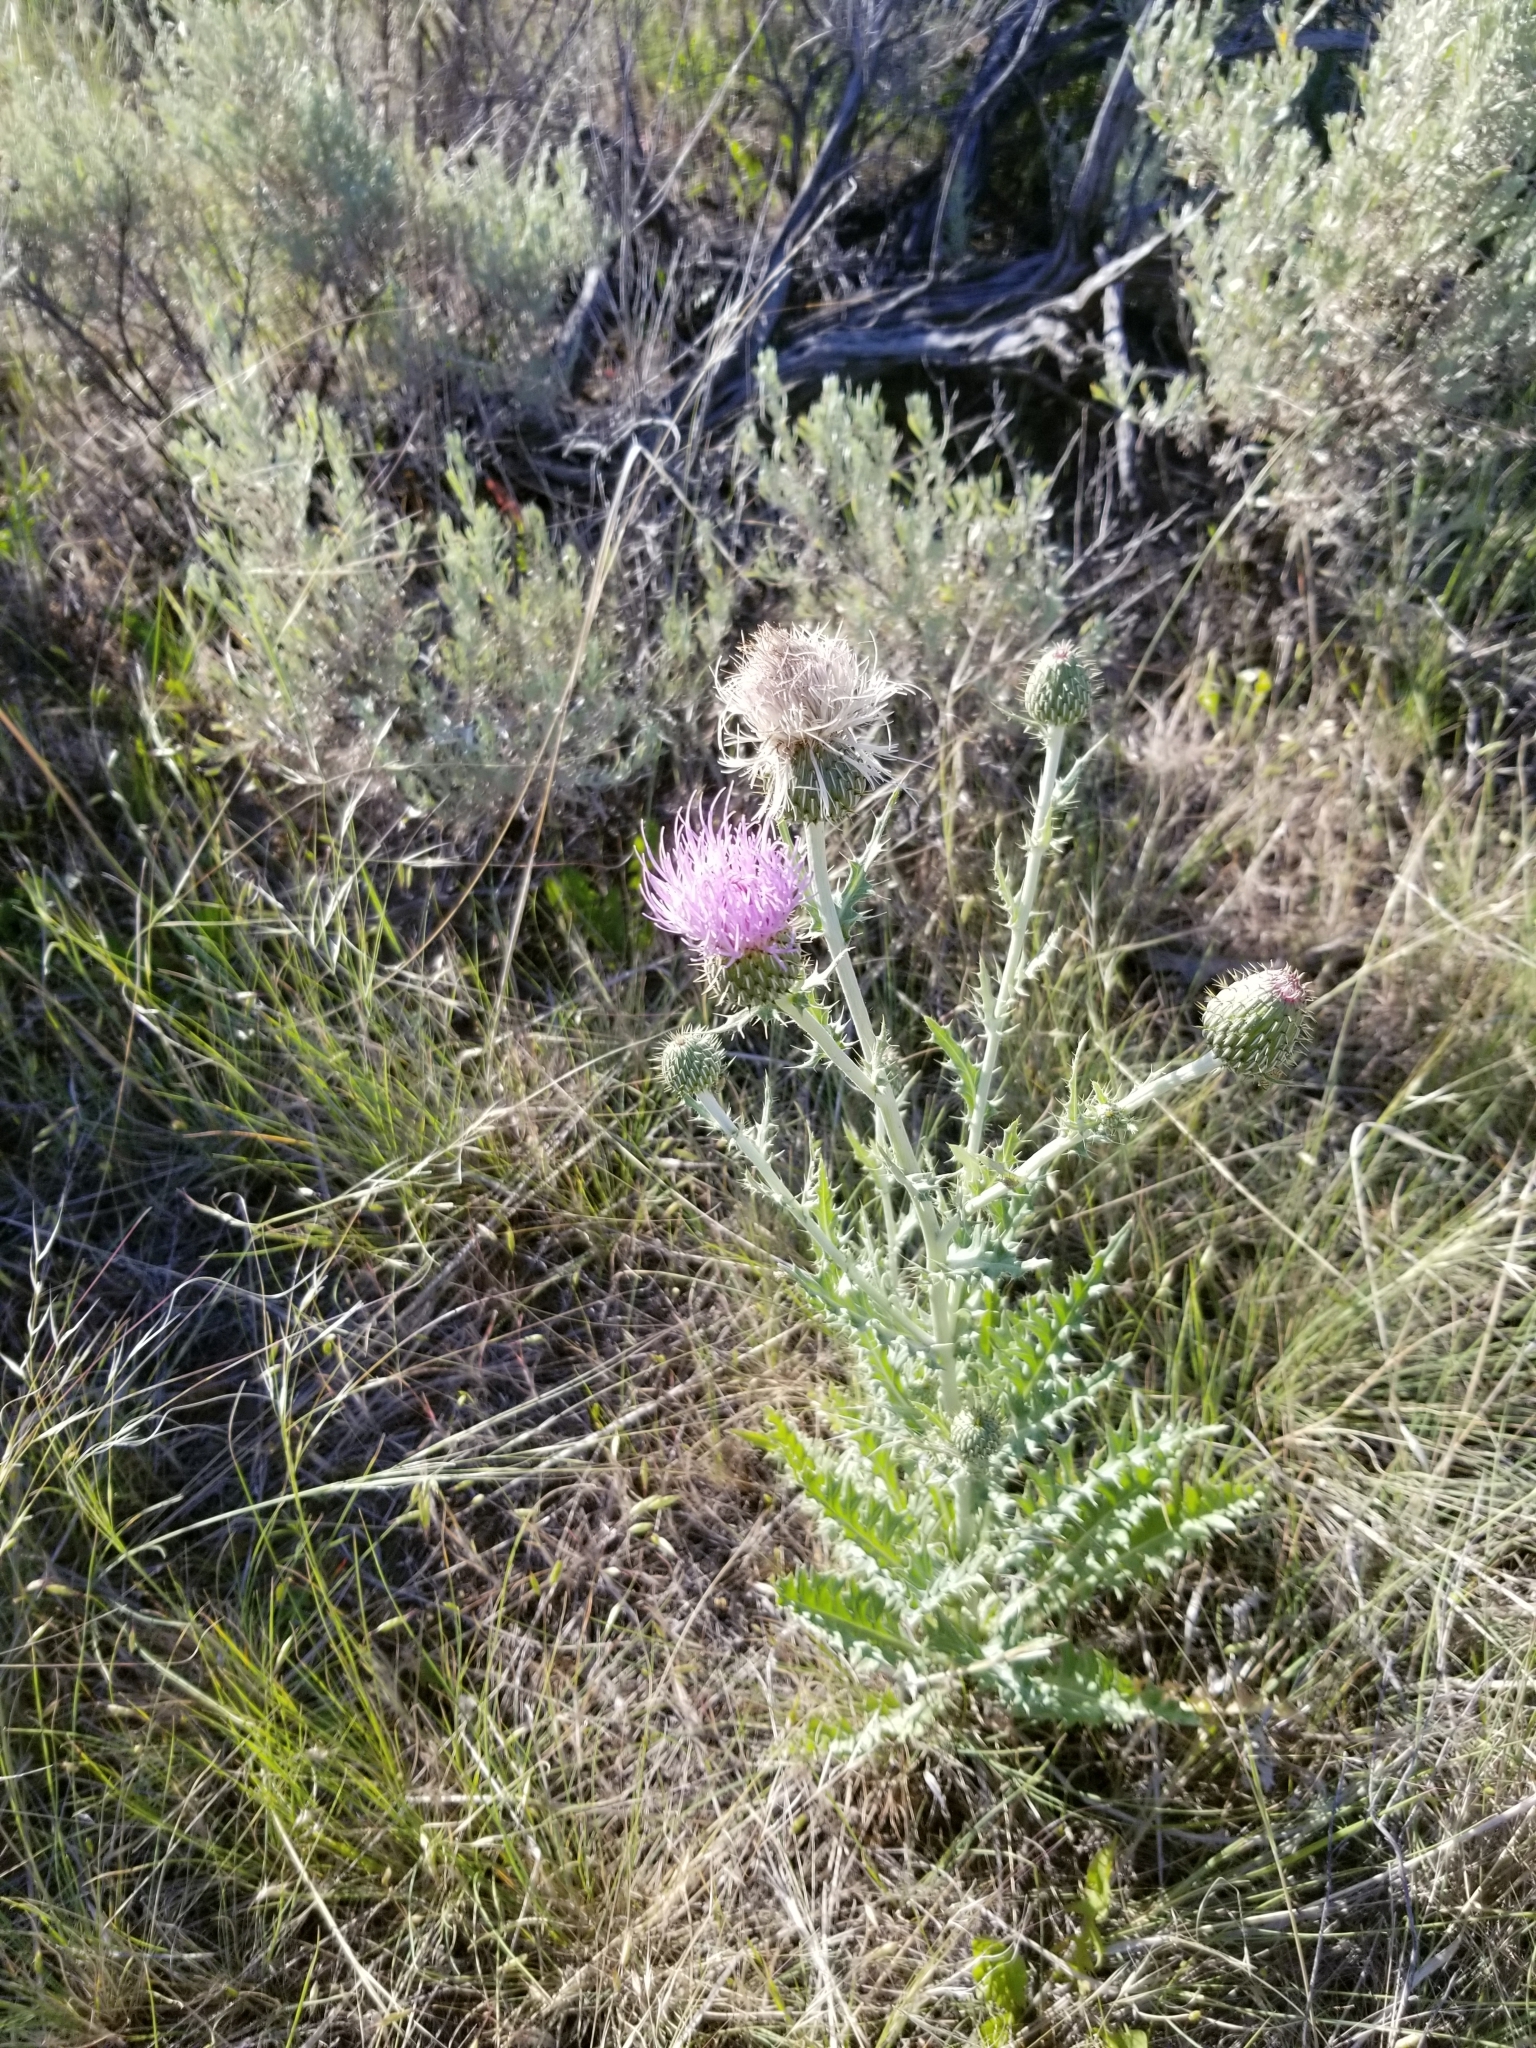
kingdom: Plantae
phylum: Tracheophyta
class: Magnoliopsida
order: Asterales
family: Asteraceae
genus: Cirsium
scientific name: Cirsium undulatum
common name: Pasture thistle
